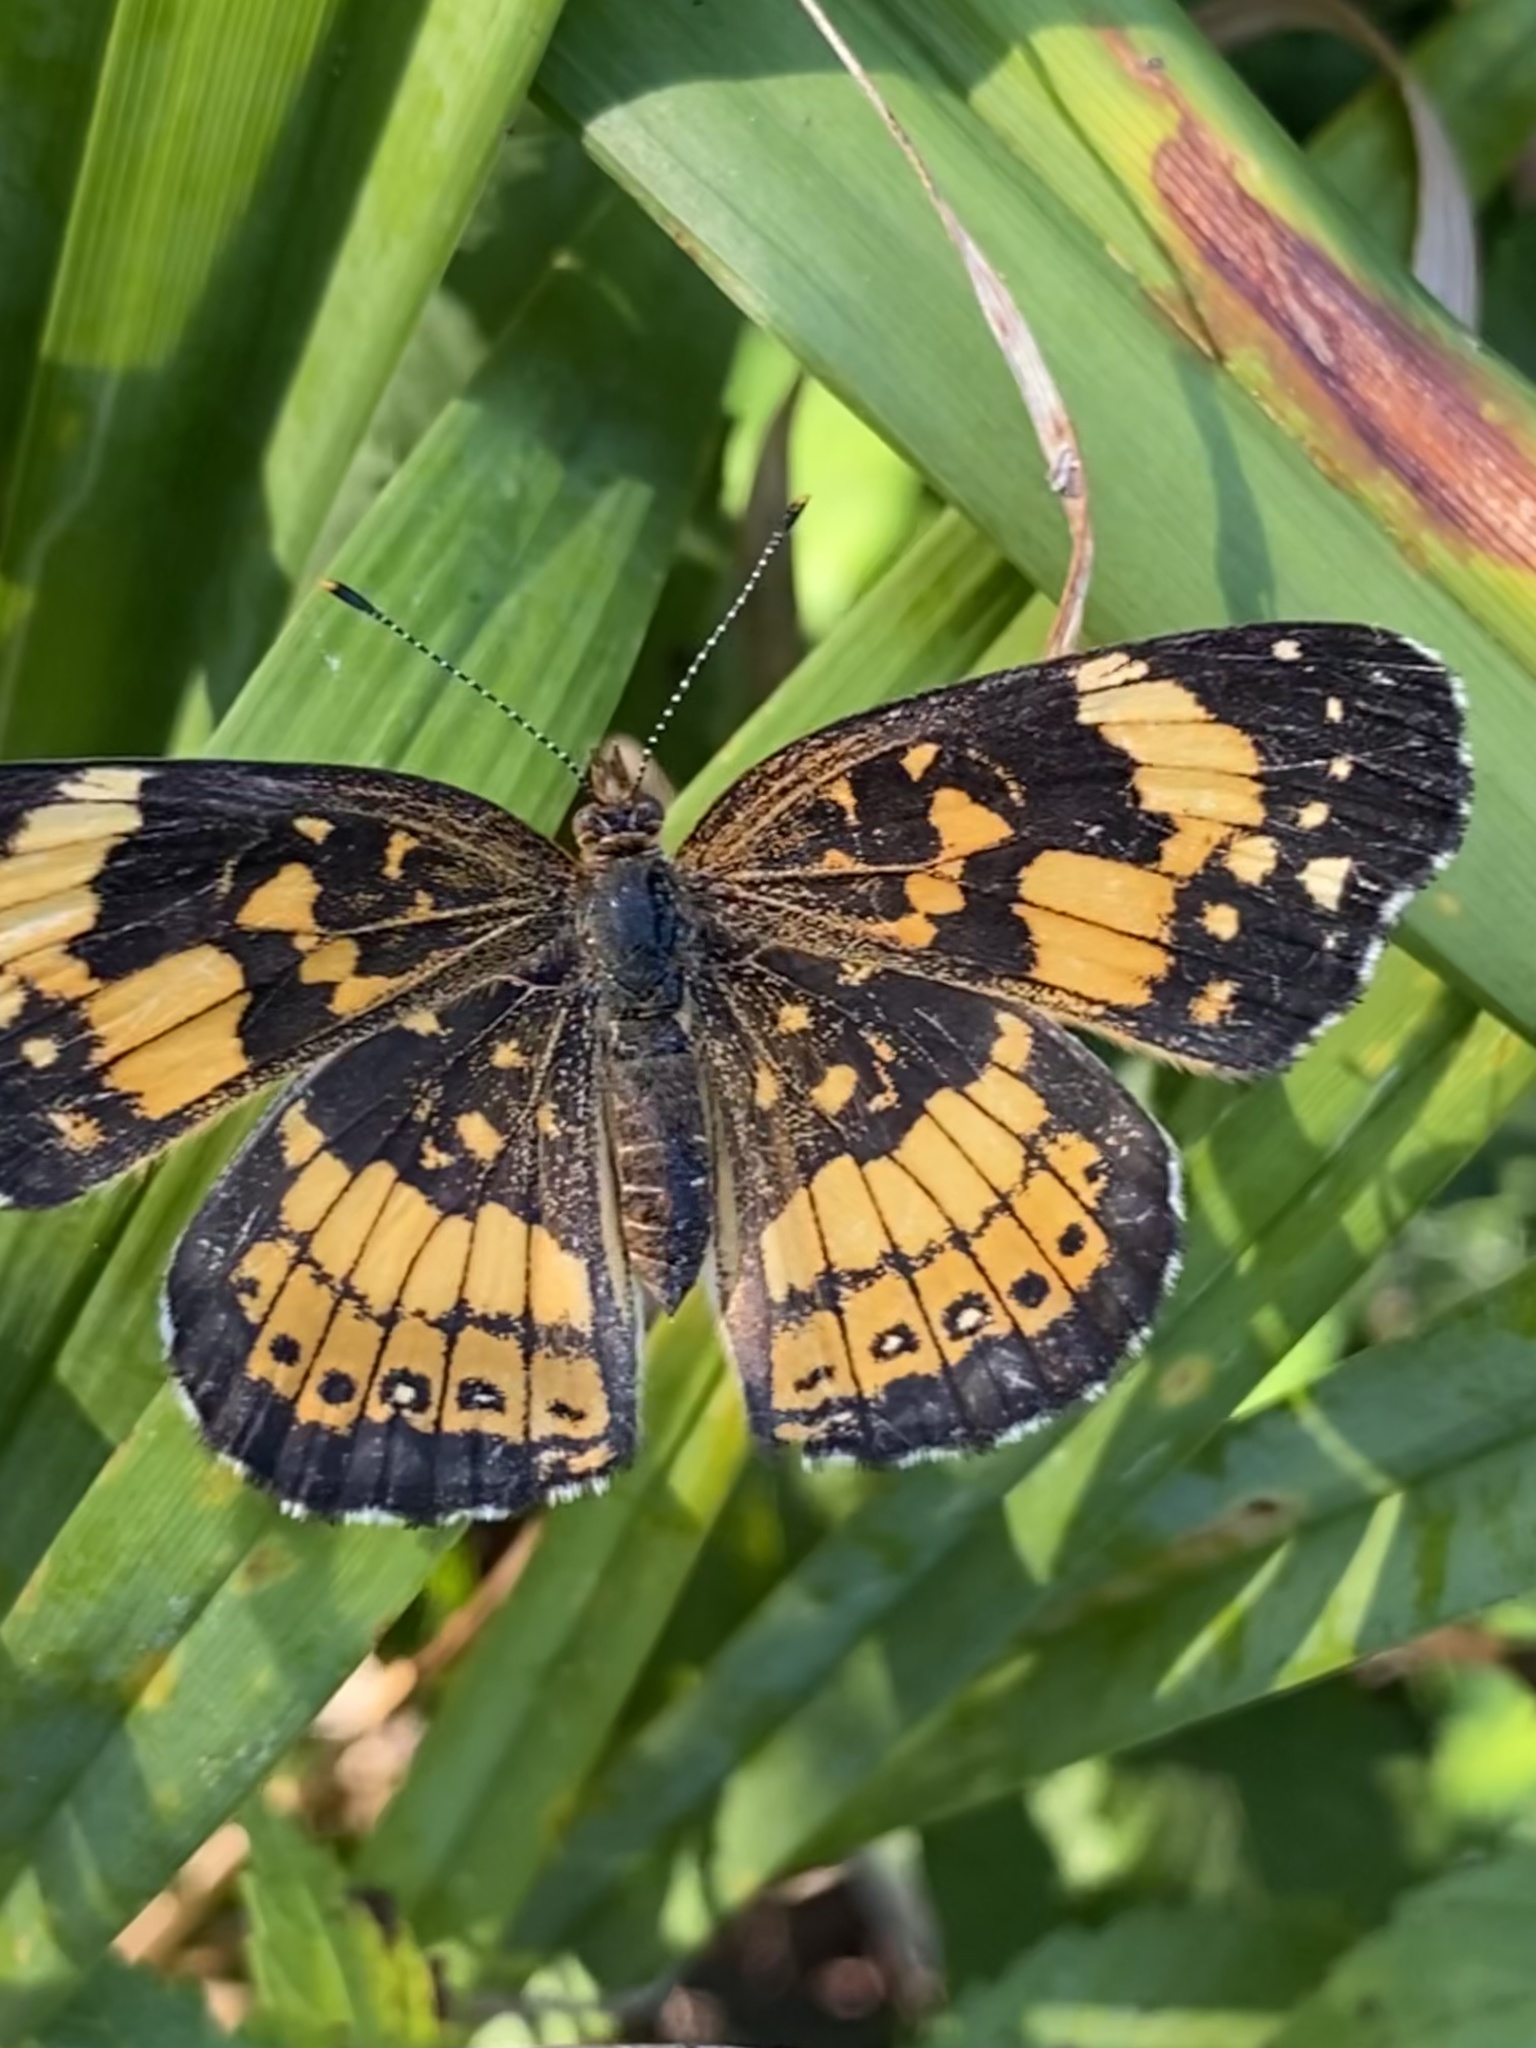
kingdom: Animalia
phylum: Arthropoda
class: Insecta
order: Lepidoptera
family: Nymphalidae
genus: Chlosyne
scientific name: Chlosyne nycteis
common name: Silvery checkerspot
